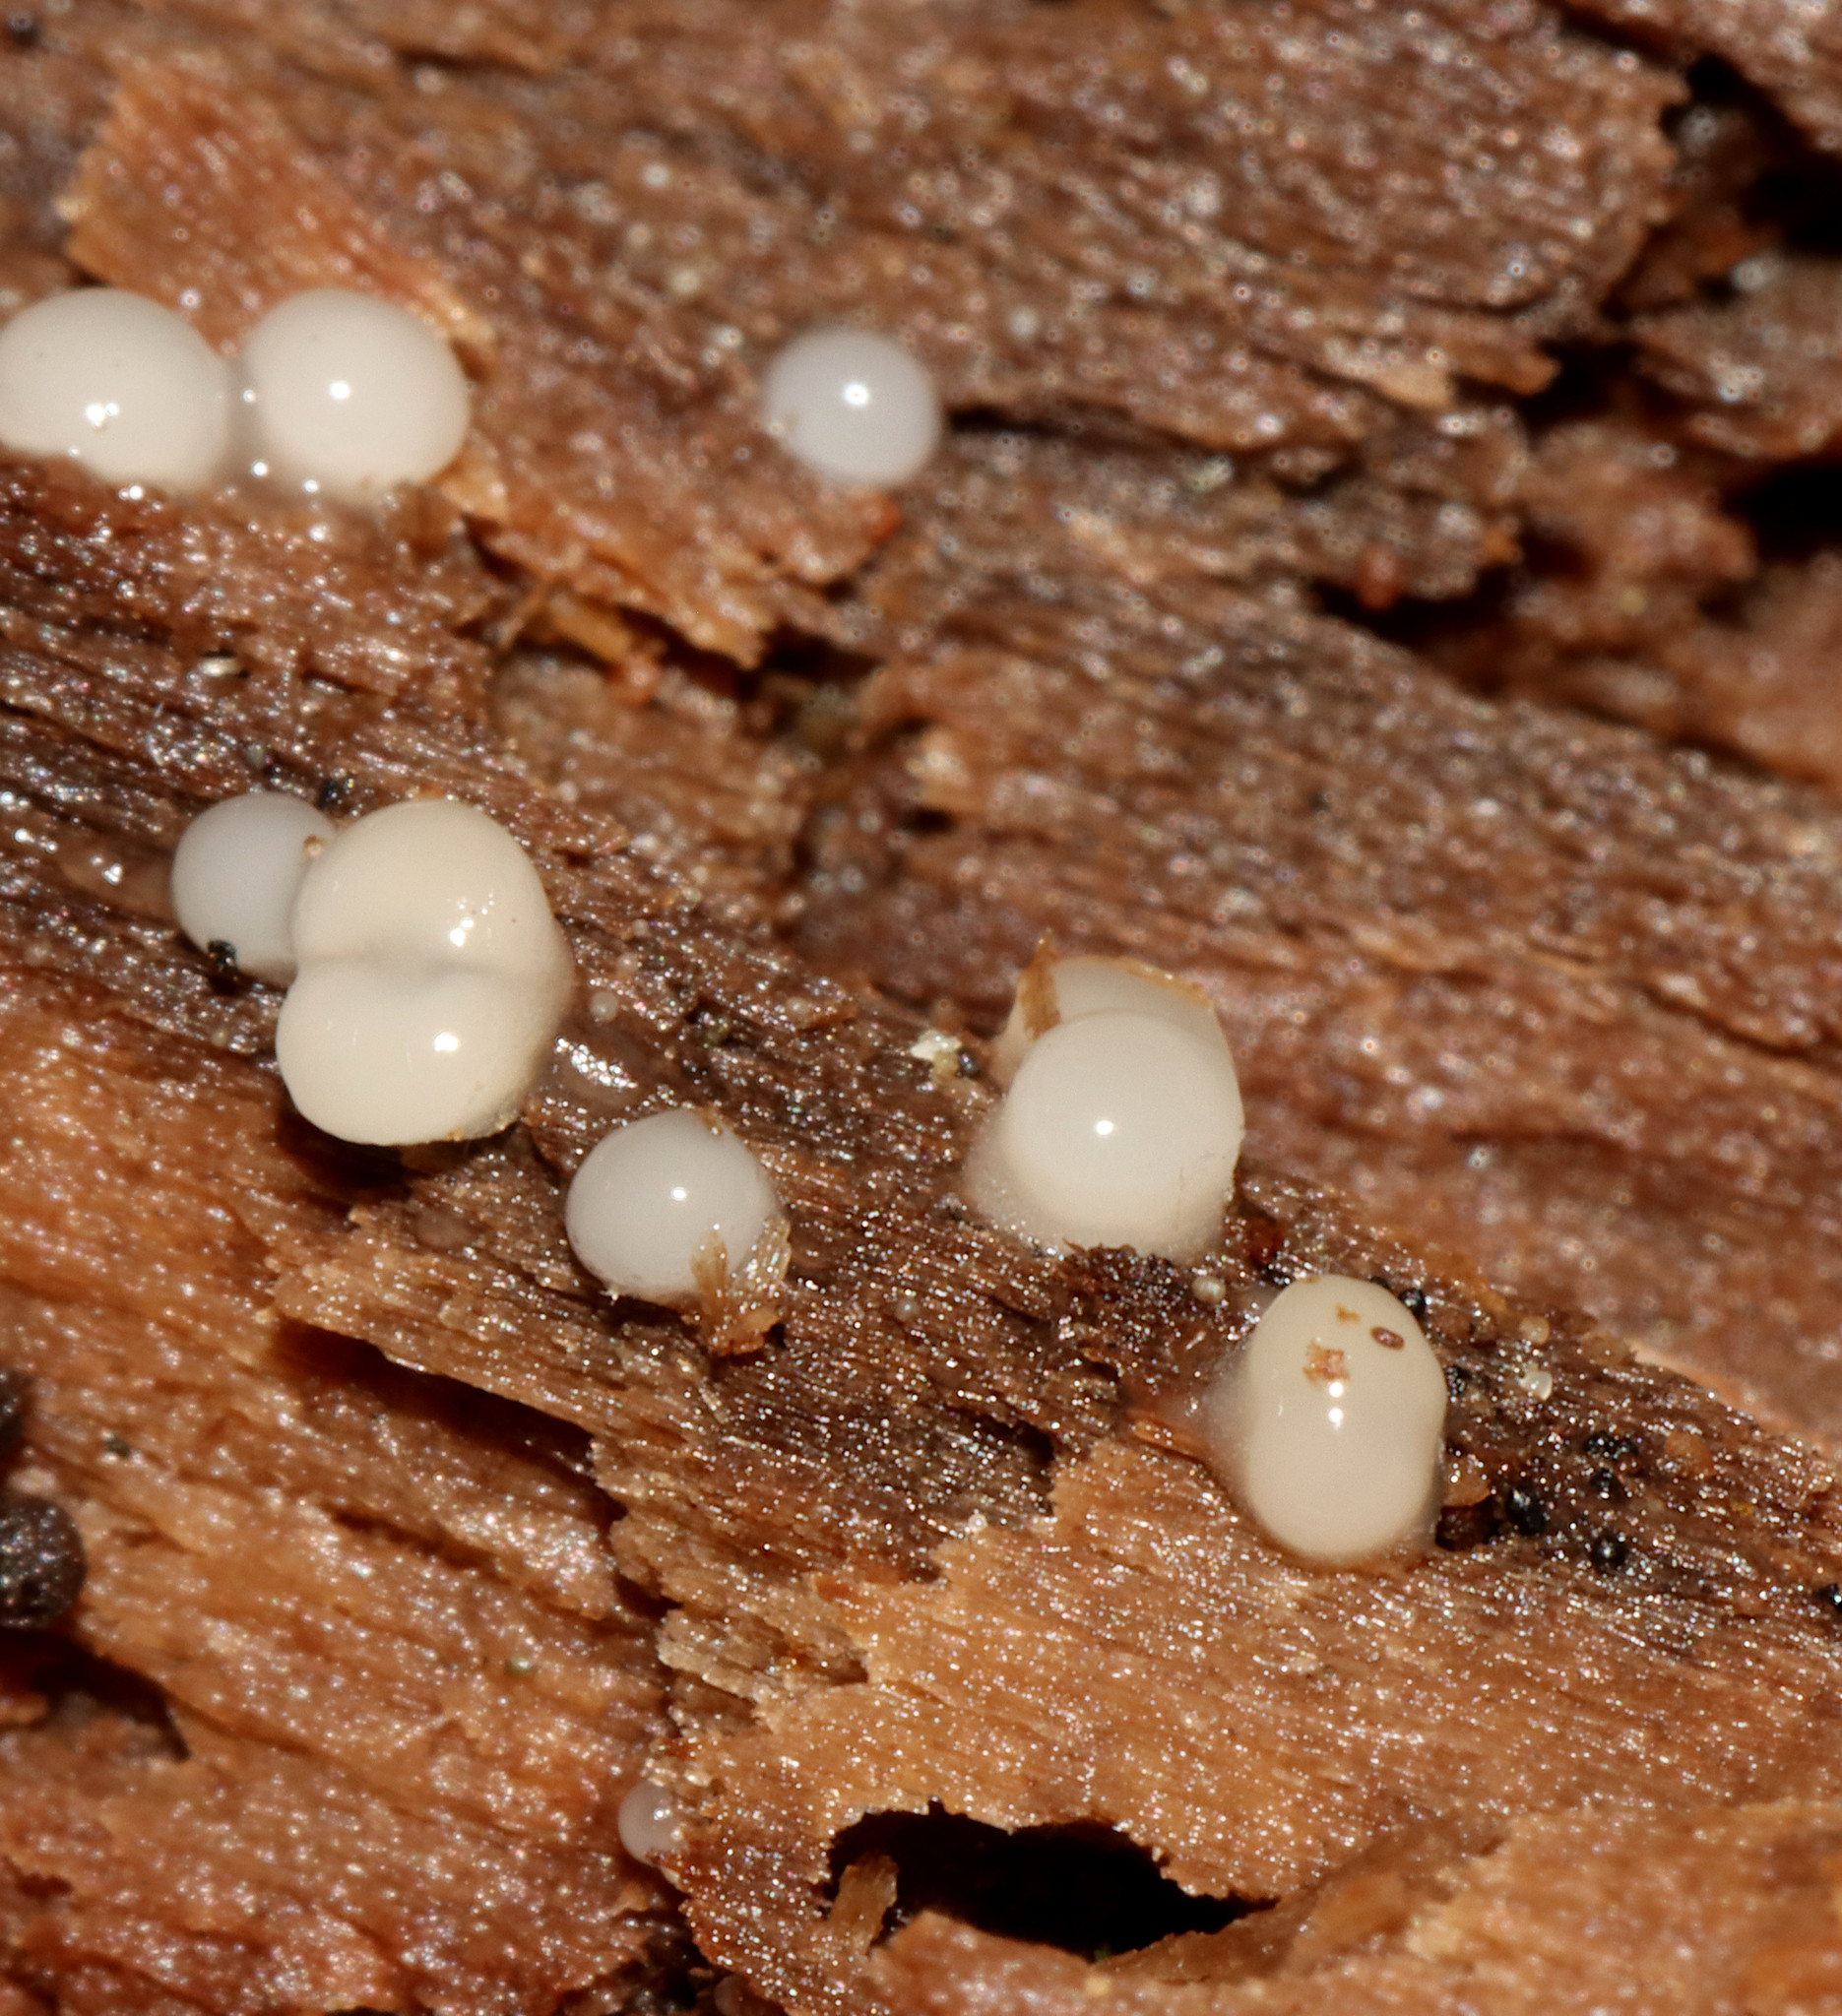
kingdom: Fungi
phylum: Basidiomycota
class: Atractiellomycetes
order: Atractiellales
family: Phleogenaceae
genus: Helicogloea
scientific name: Helicogloea compressa
